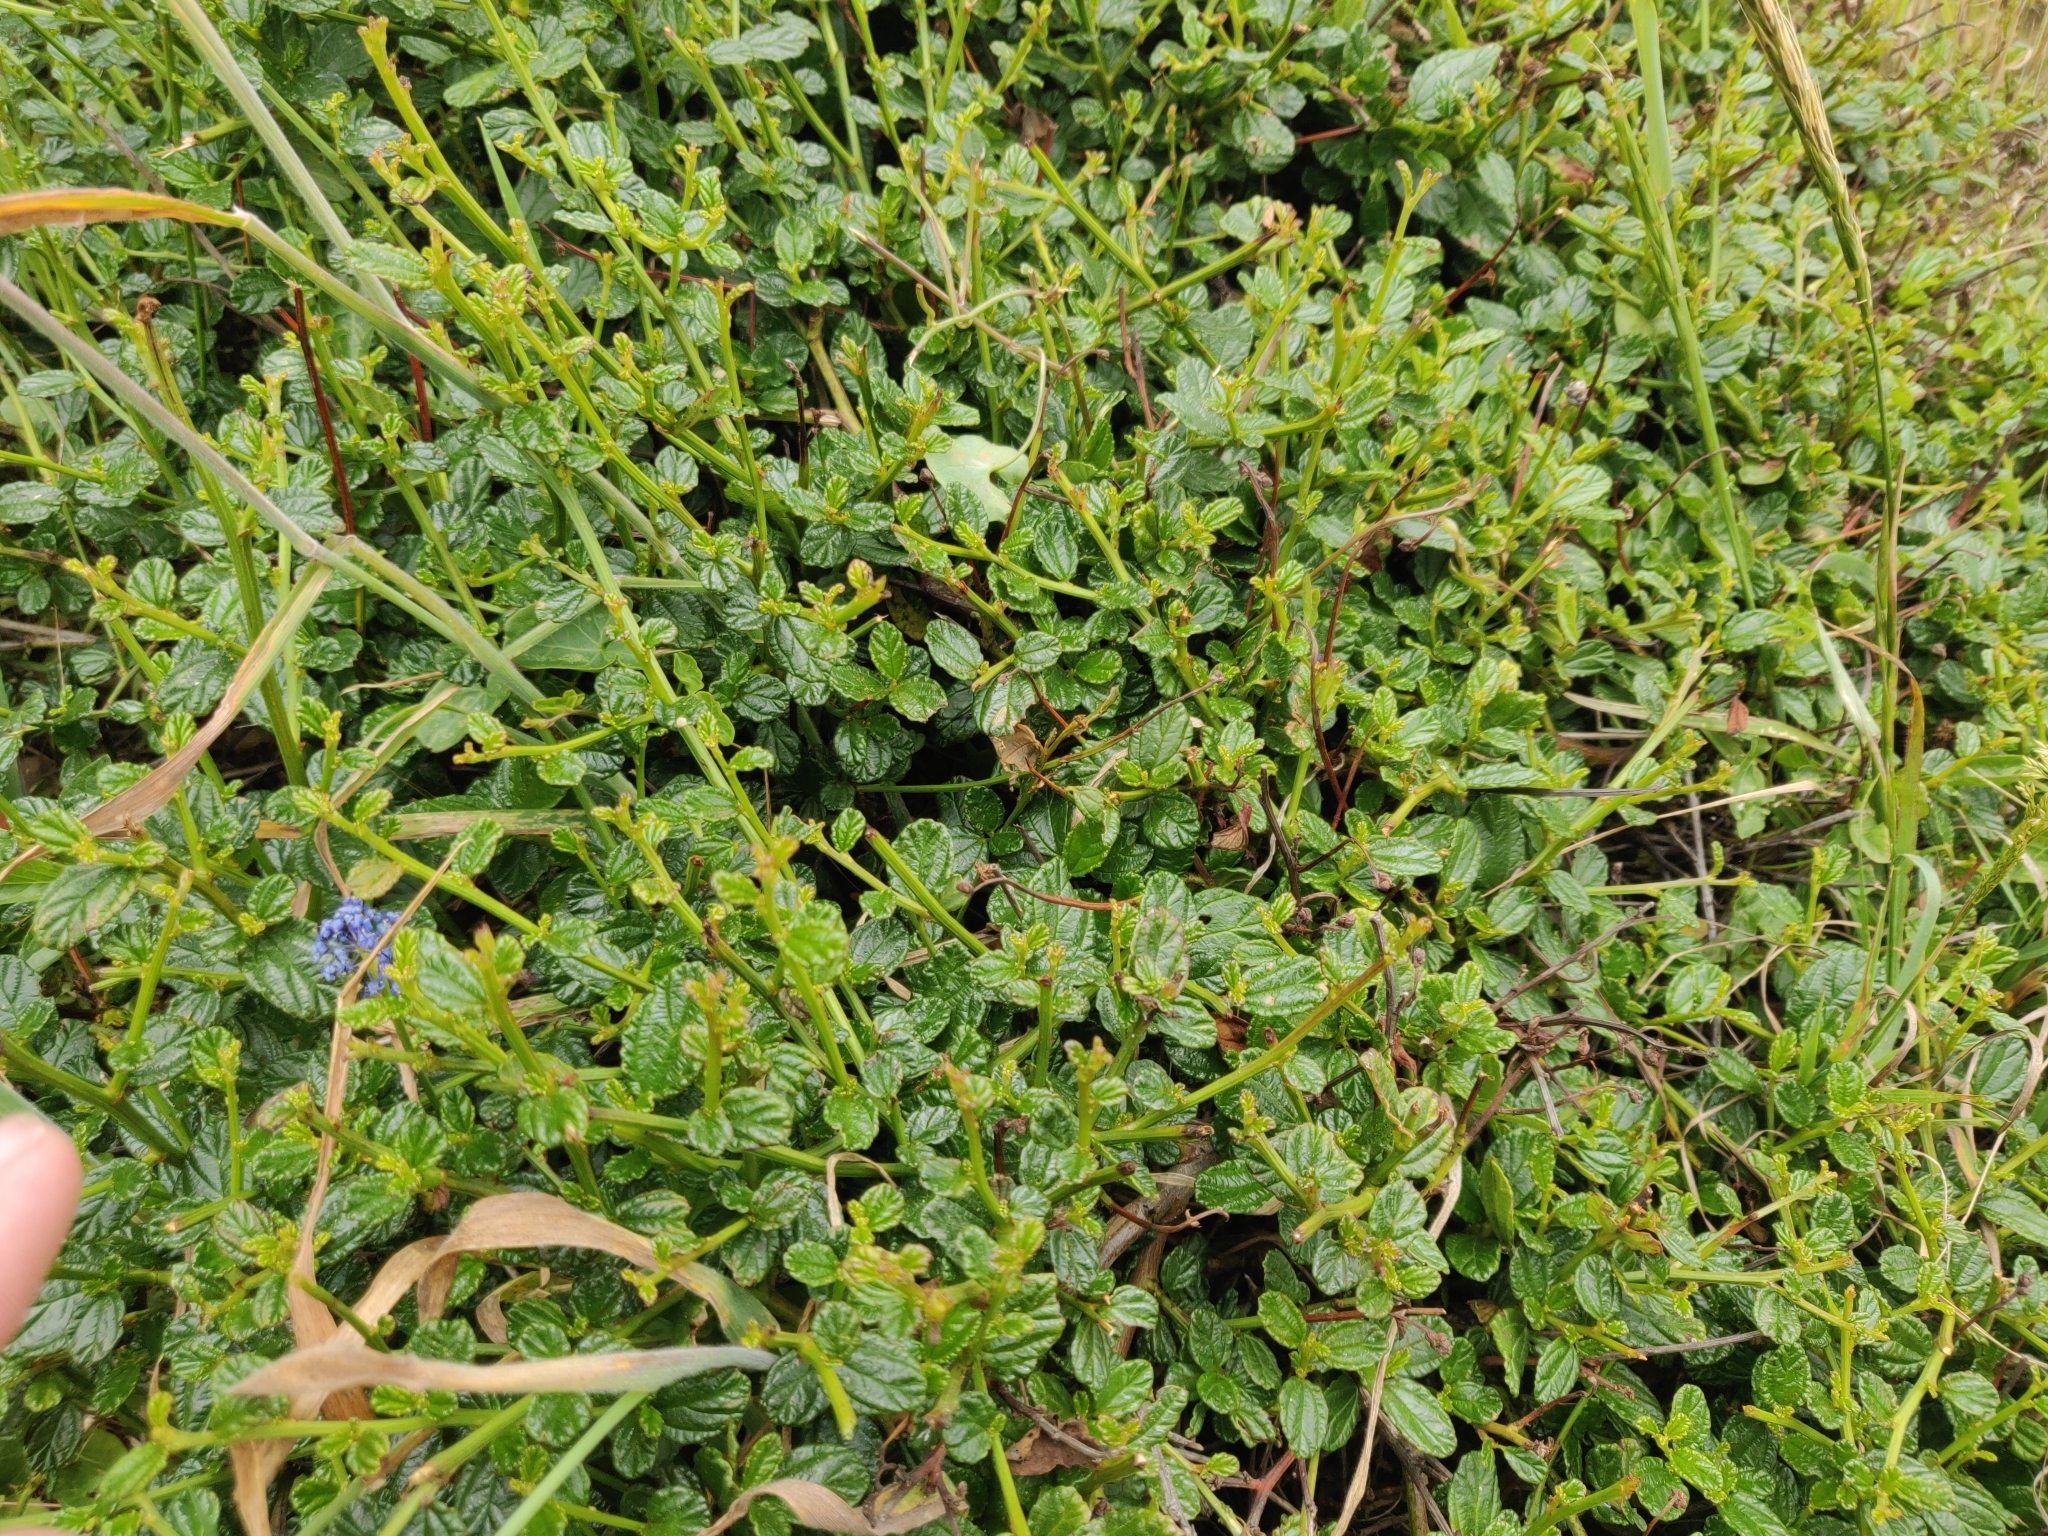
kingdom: Plantae
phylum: Tracheophyta
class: Magnoliopsida
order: Rosales
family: Rhamnaceae
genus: Ceanothus
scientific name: Ceanothus thyrsiflorus
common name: California-lilac
